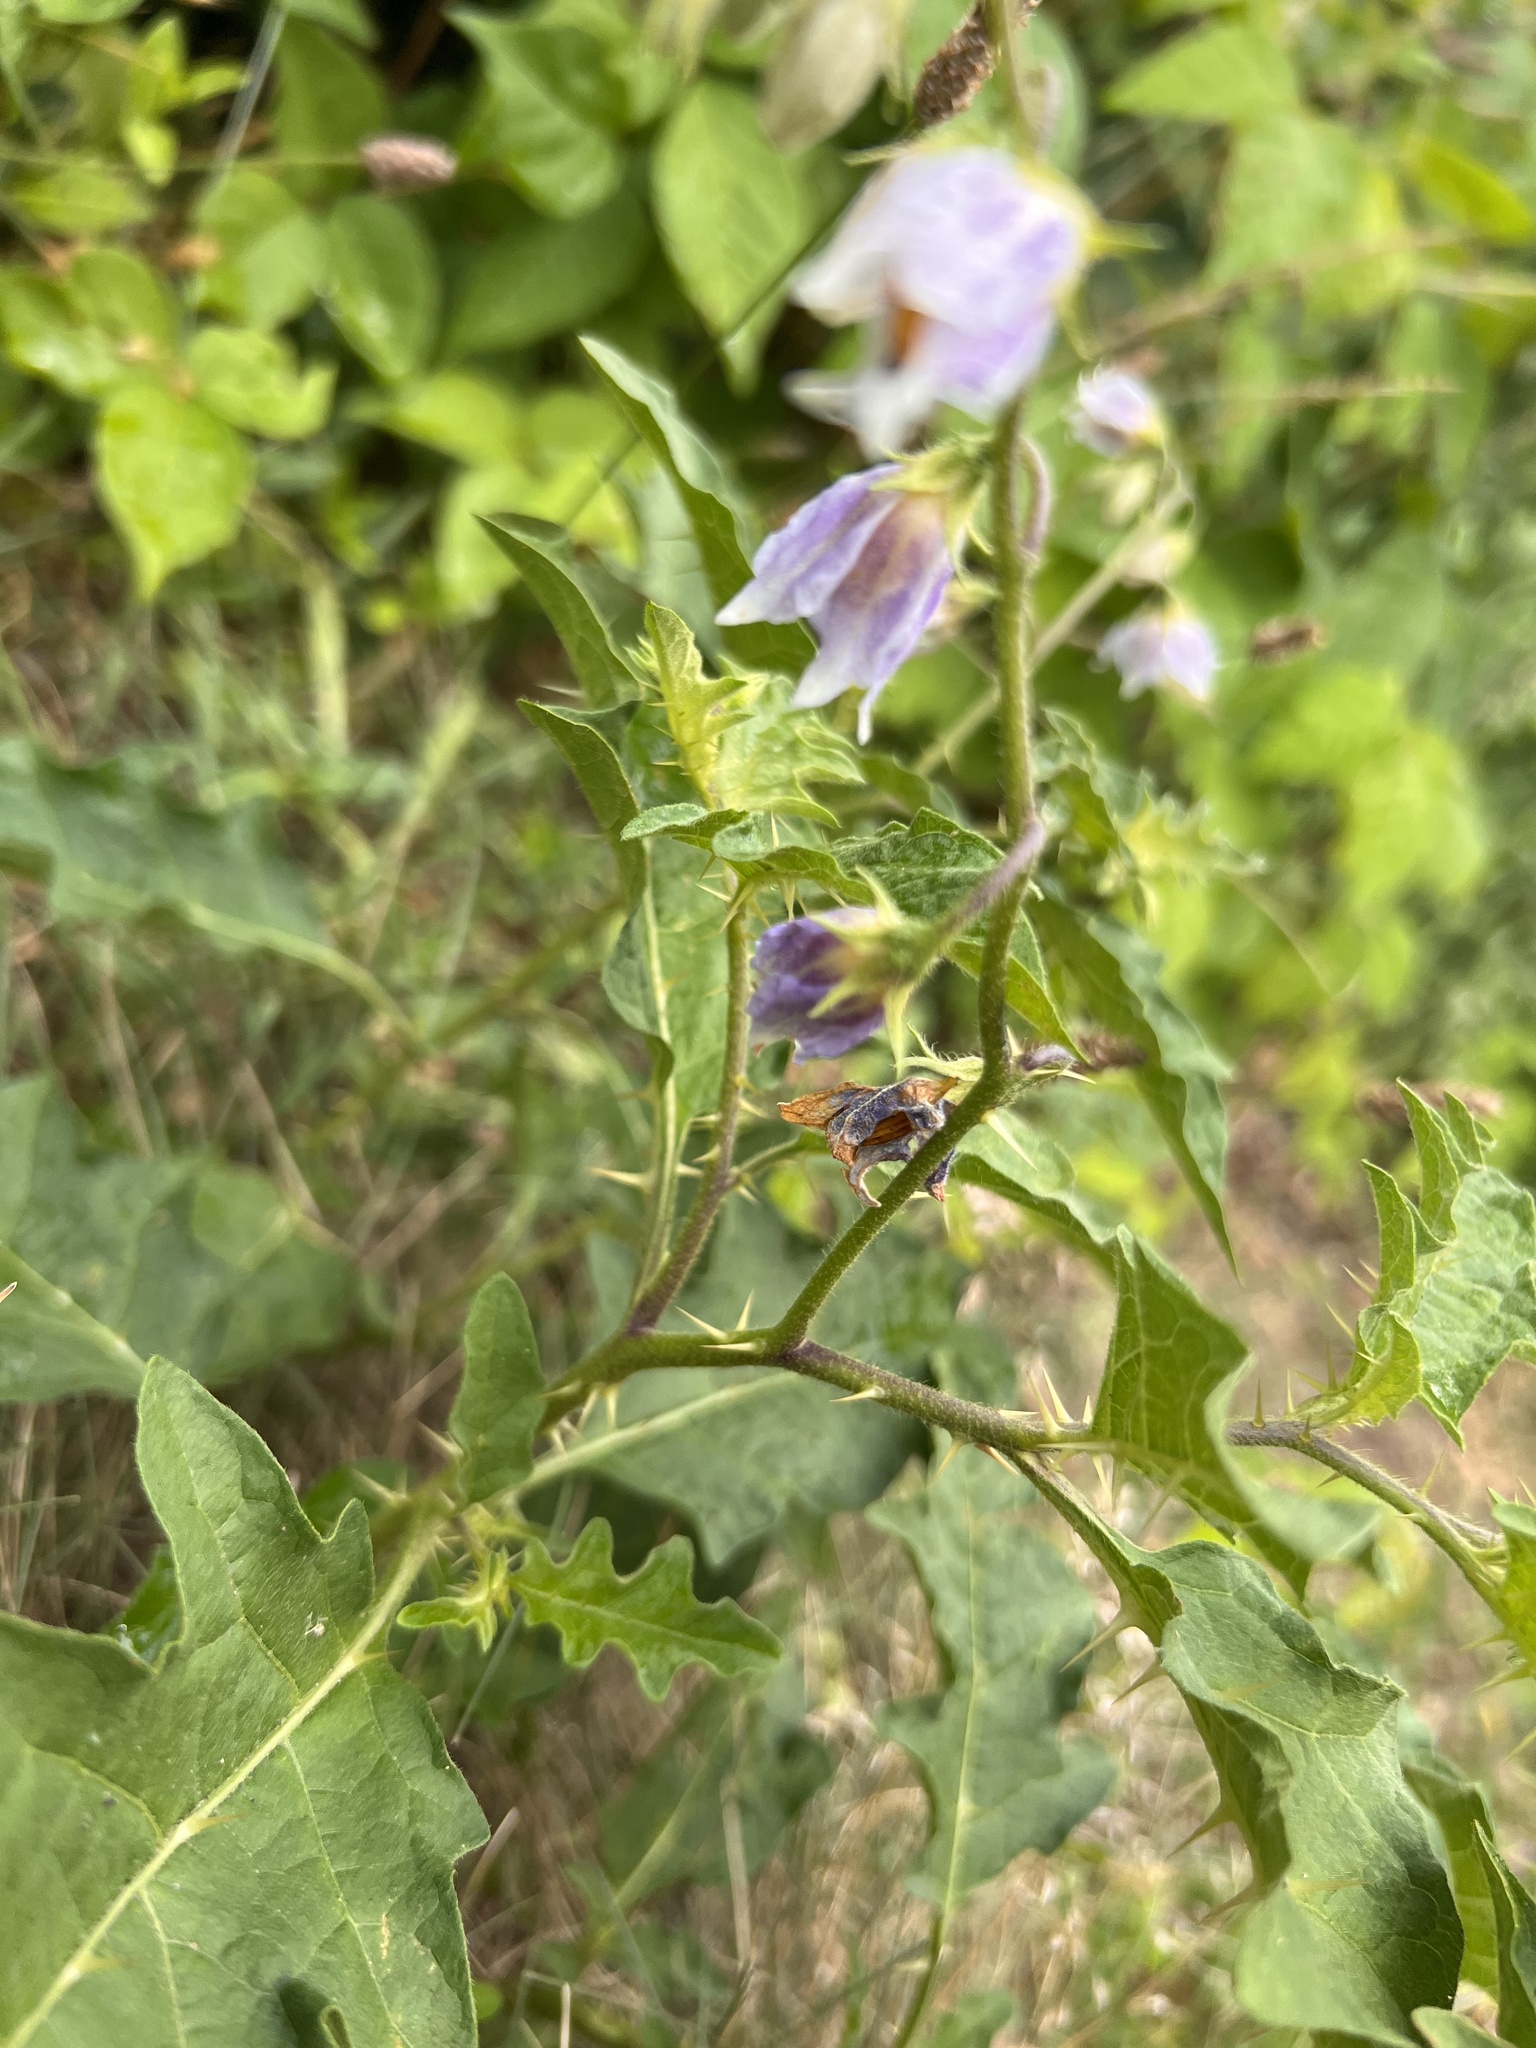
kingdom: Plantae
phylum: Tracheophyta
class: Magnoliopsida
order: Solanales
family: Solanaceae
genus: Solanum
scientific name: Solanum carolinense
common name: Horse-nettle
